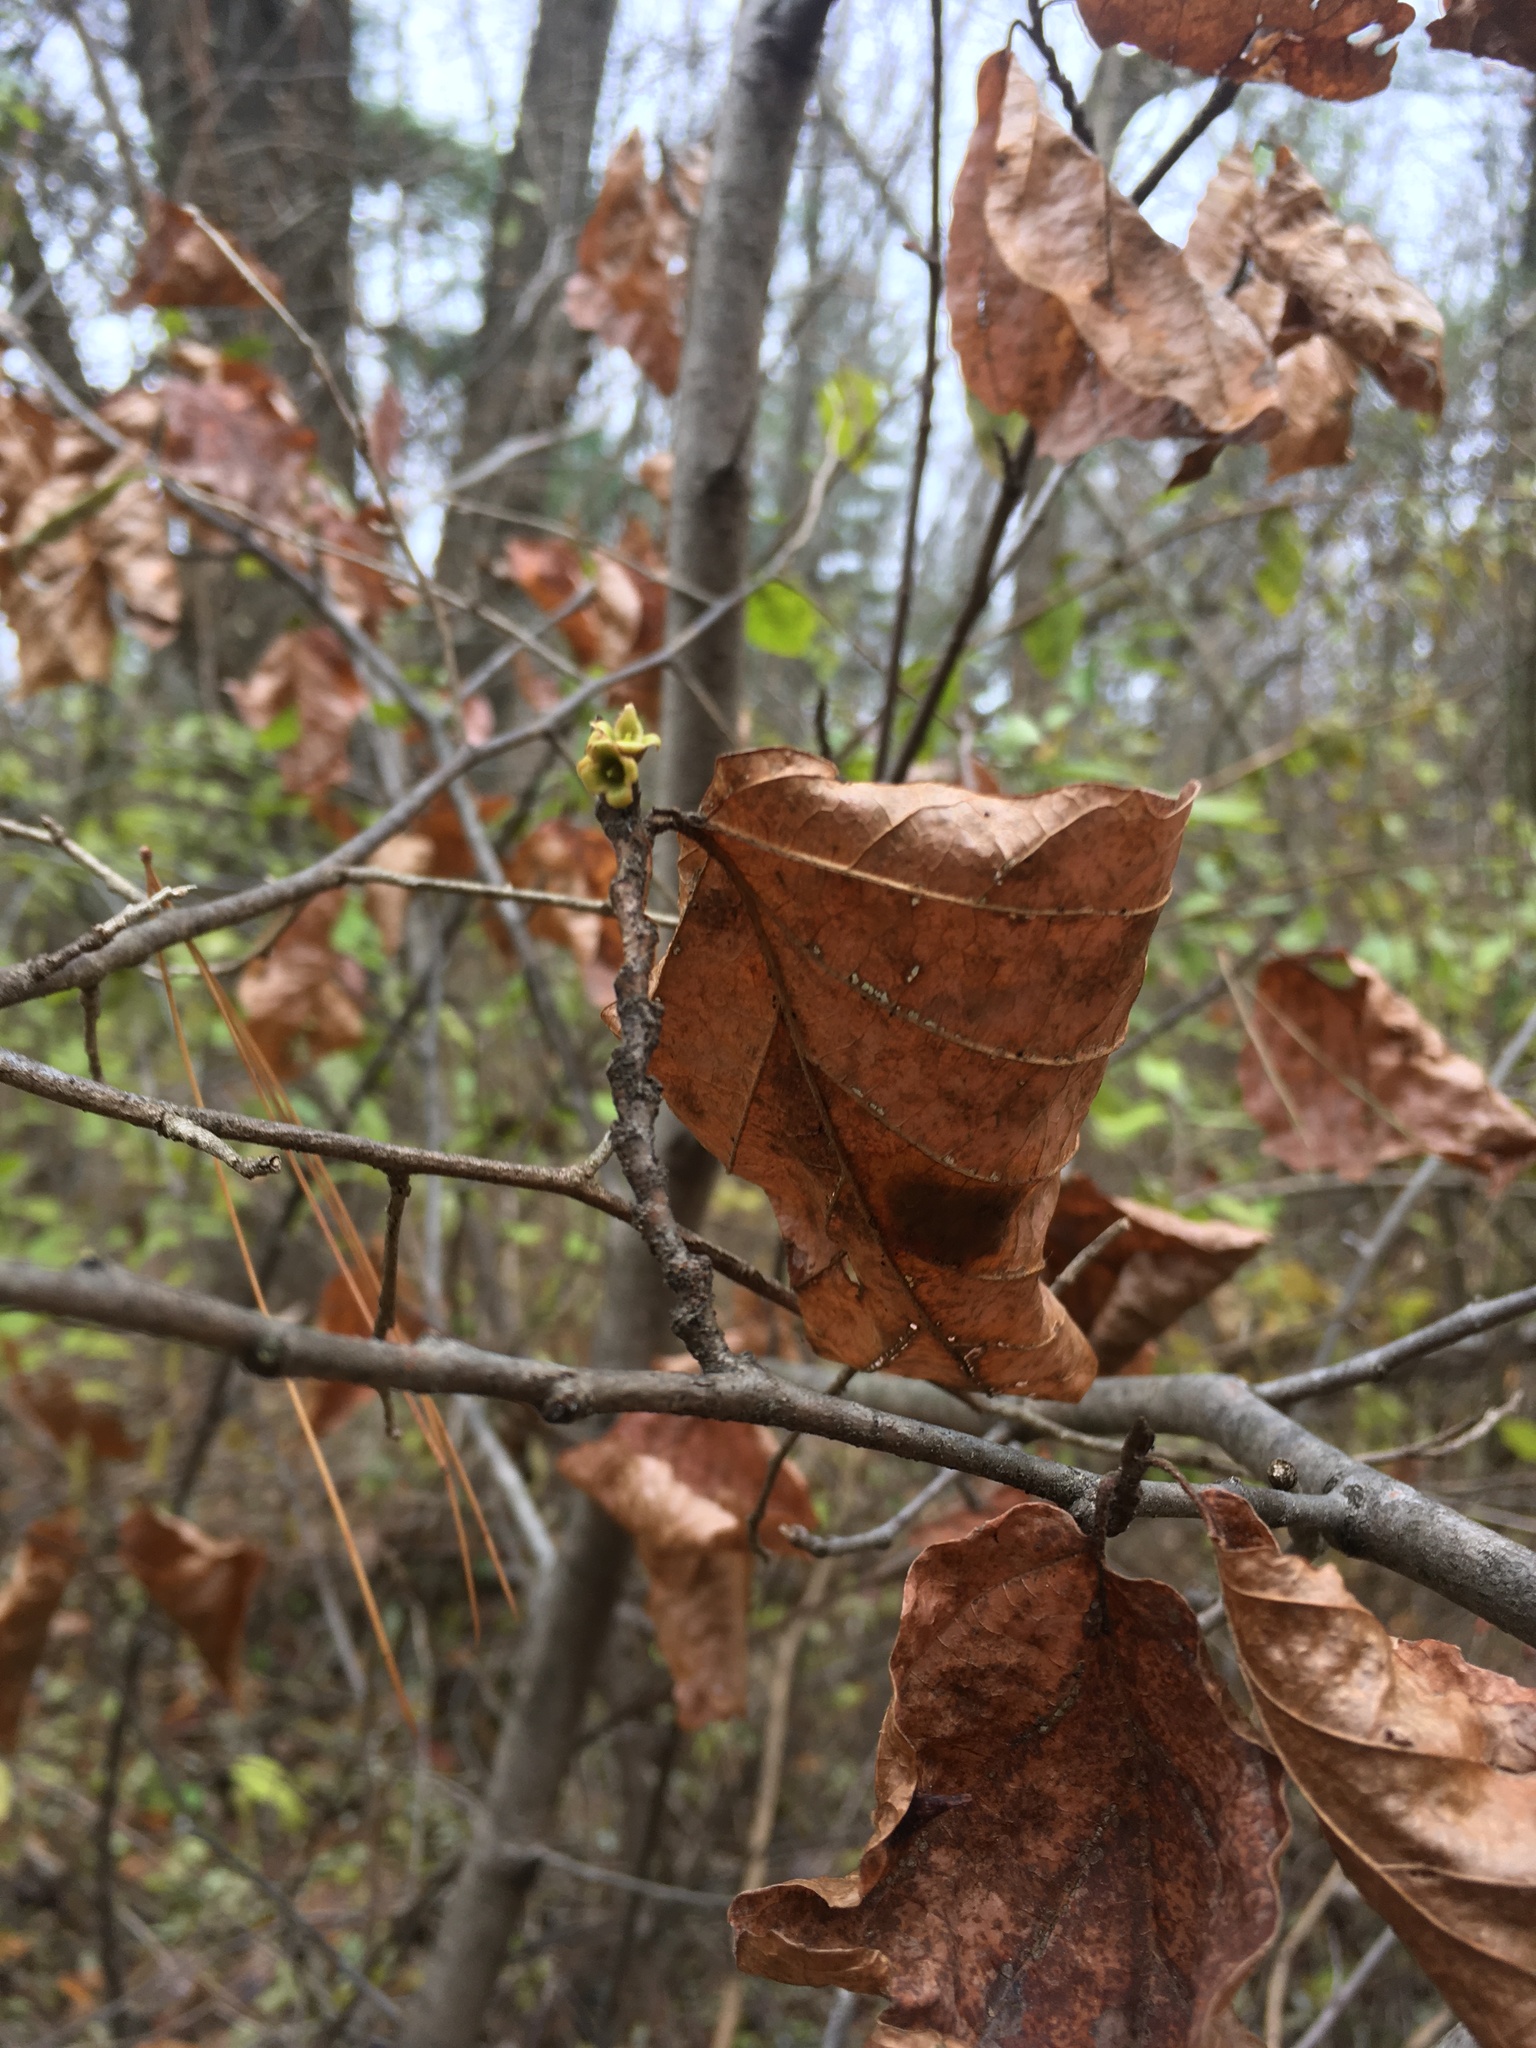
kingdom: Plantae
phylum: Tracheophyta
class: Magnoliopsida
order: Saxifragales
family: Hamamelidaceae
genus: Hamamelis
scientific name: Hamamelis virginiana
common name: Witch-hazel
